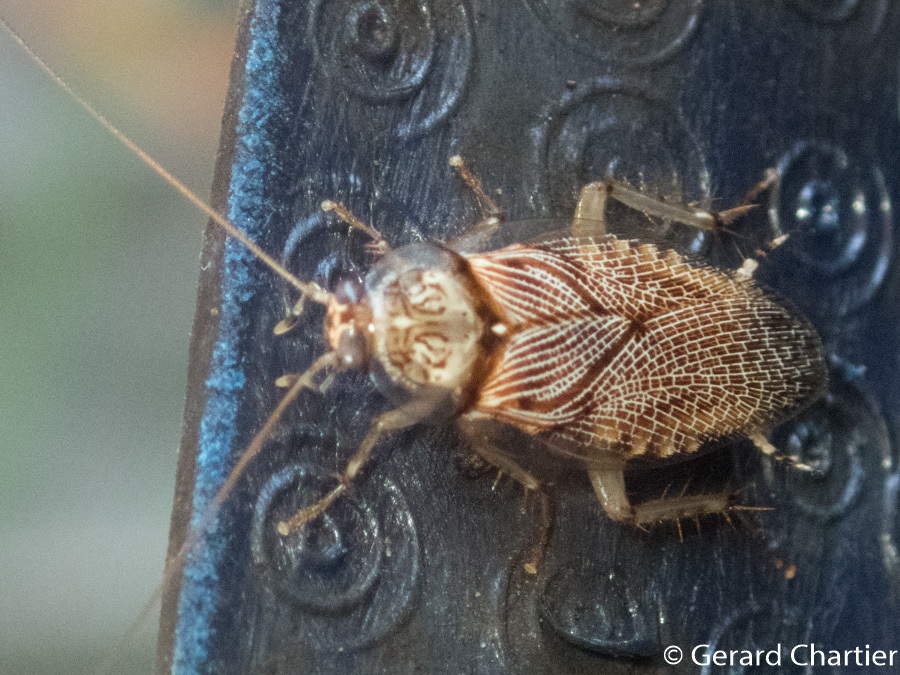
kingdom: Animalia
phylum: Arthropoda
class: Insecta
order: Blattodea
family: Ectobiidae
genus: Balta
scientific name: Balta notulata
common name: Cockroach
